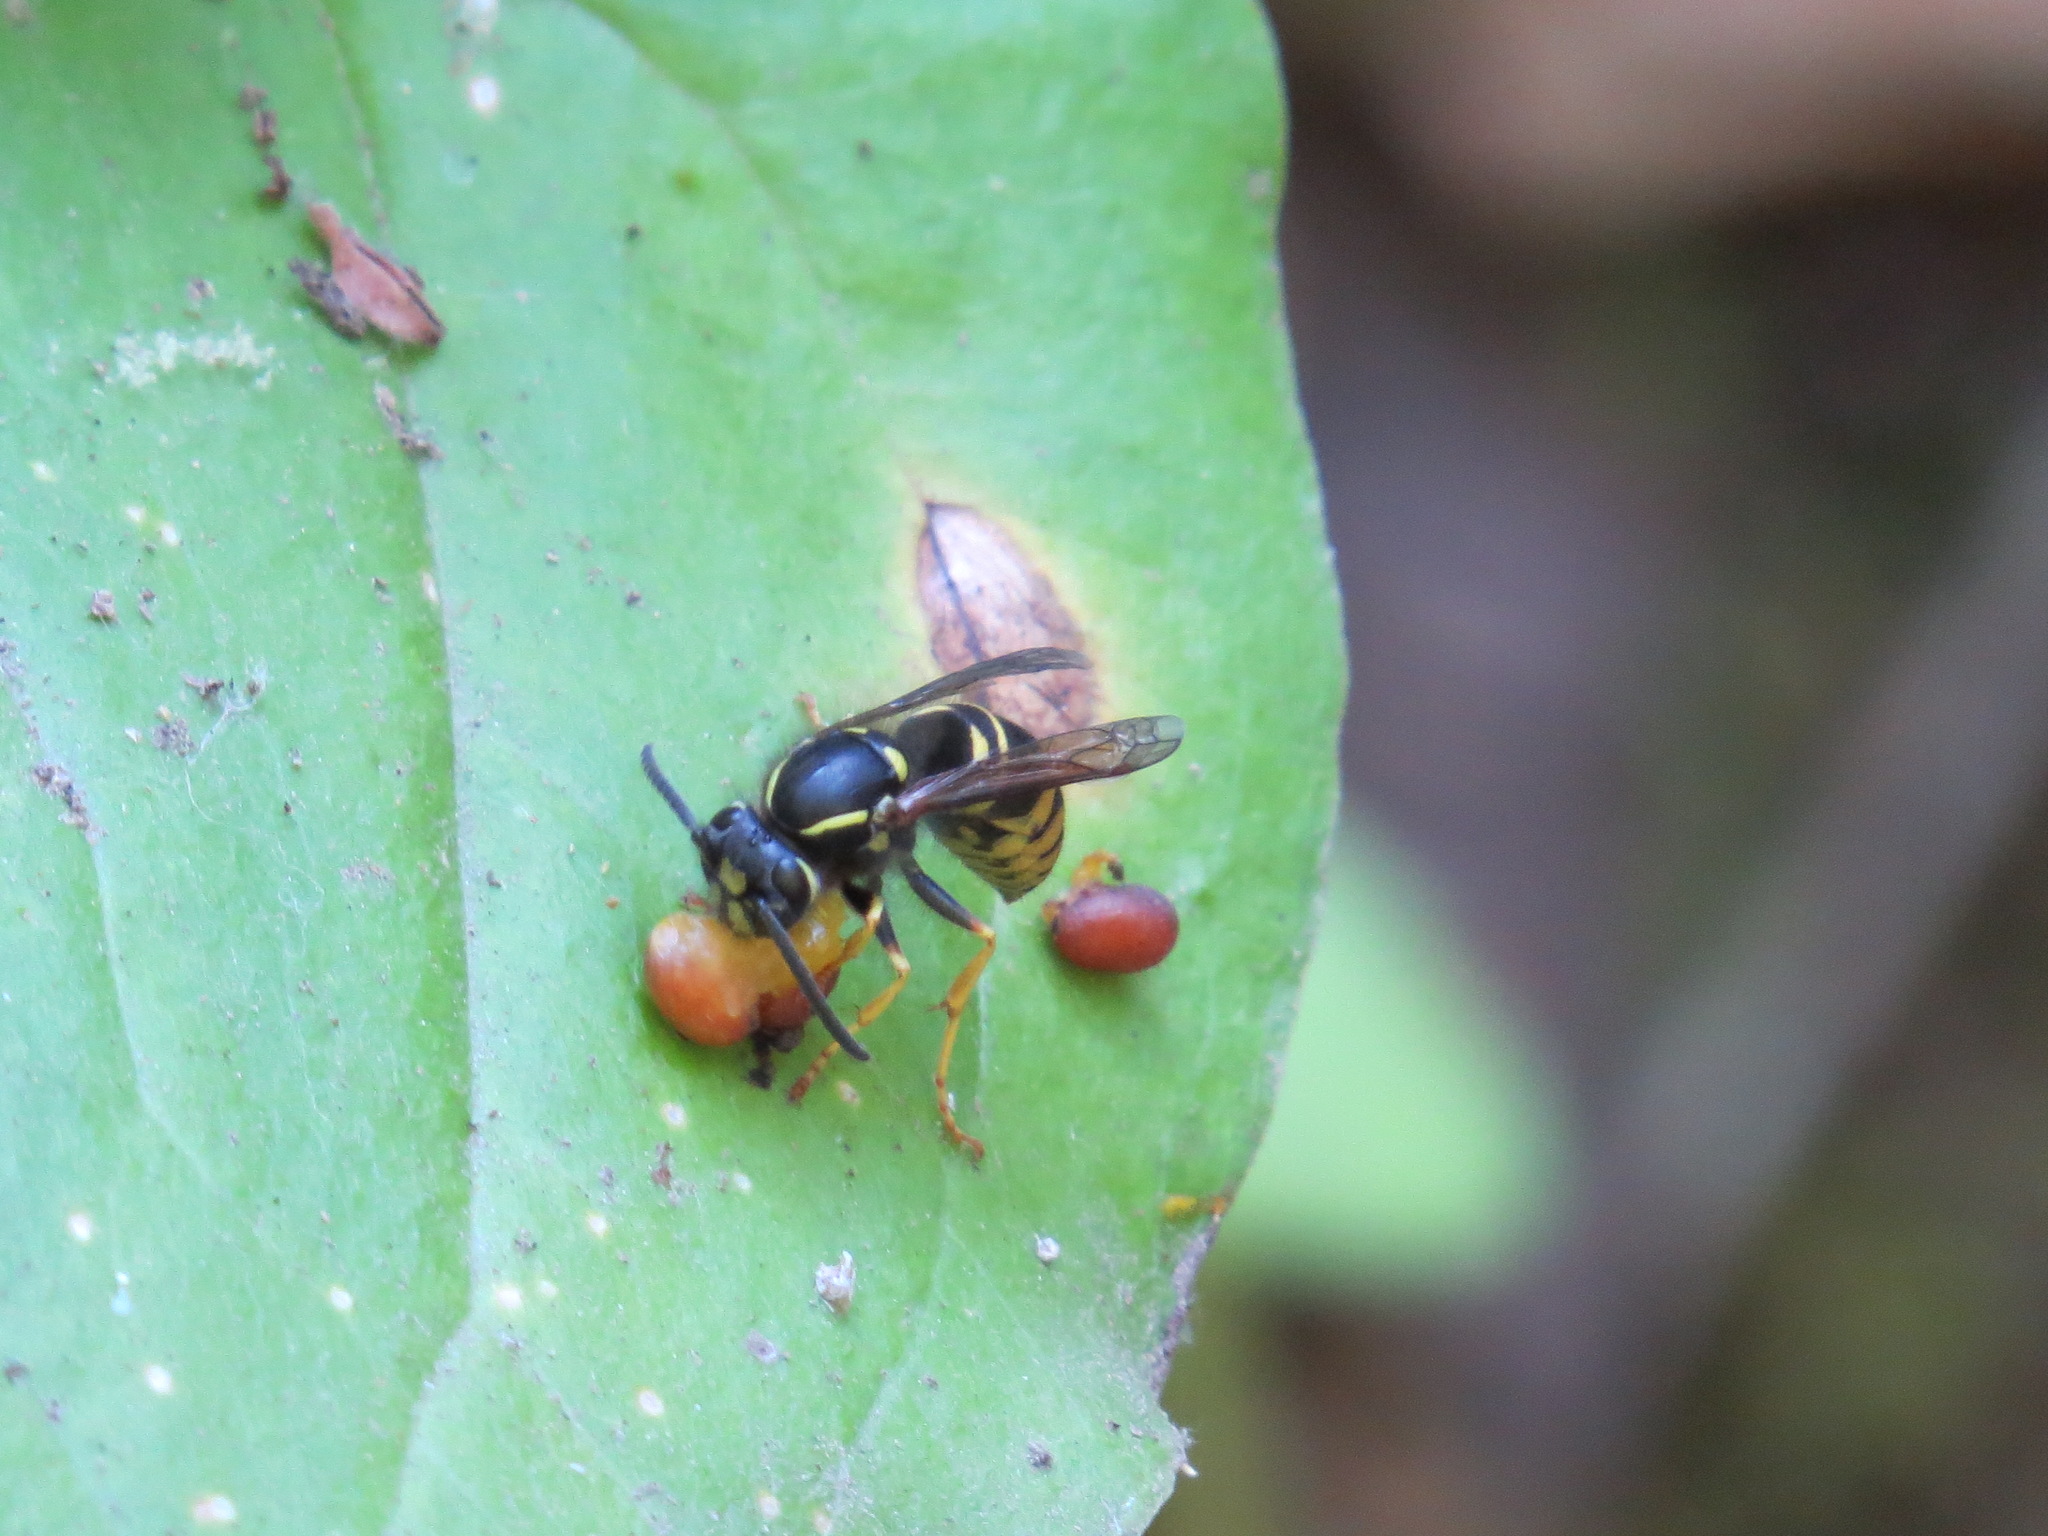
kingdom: Animalia
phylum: Arthropoda
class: Insecta
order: Hymenoptera
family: Vespidae
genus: Vespula
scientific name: Vespula acadica
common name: Forest yellowjacket
